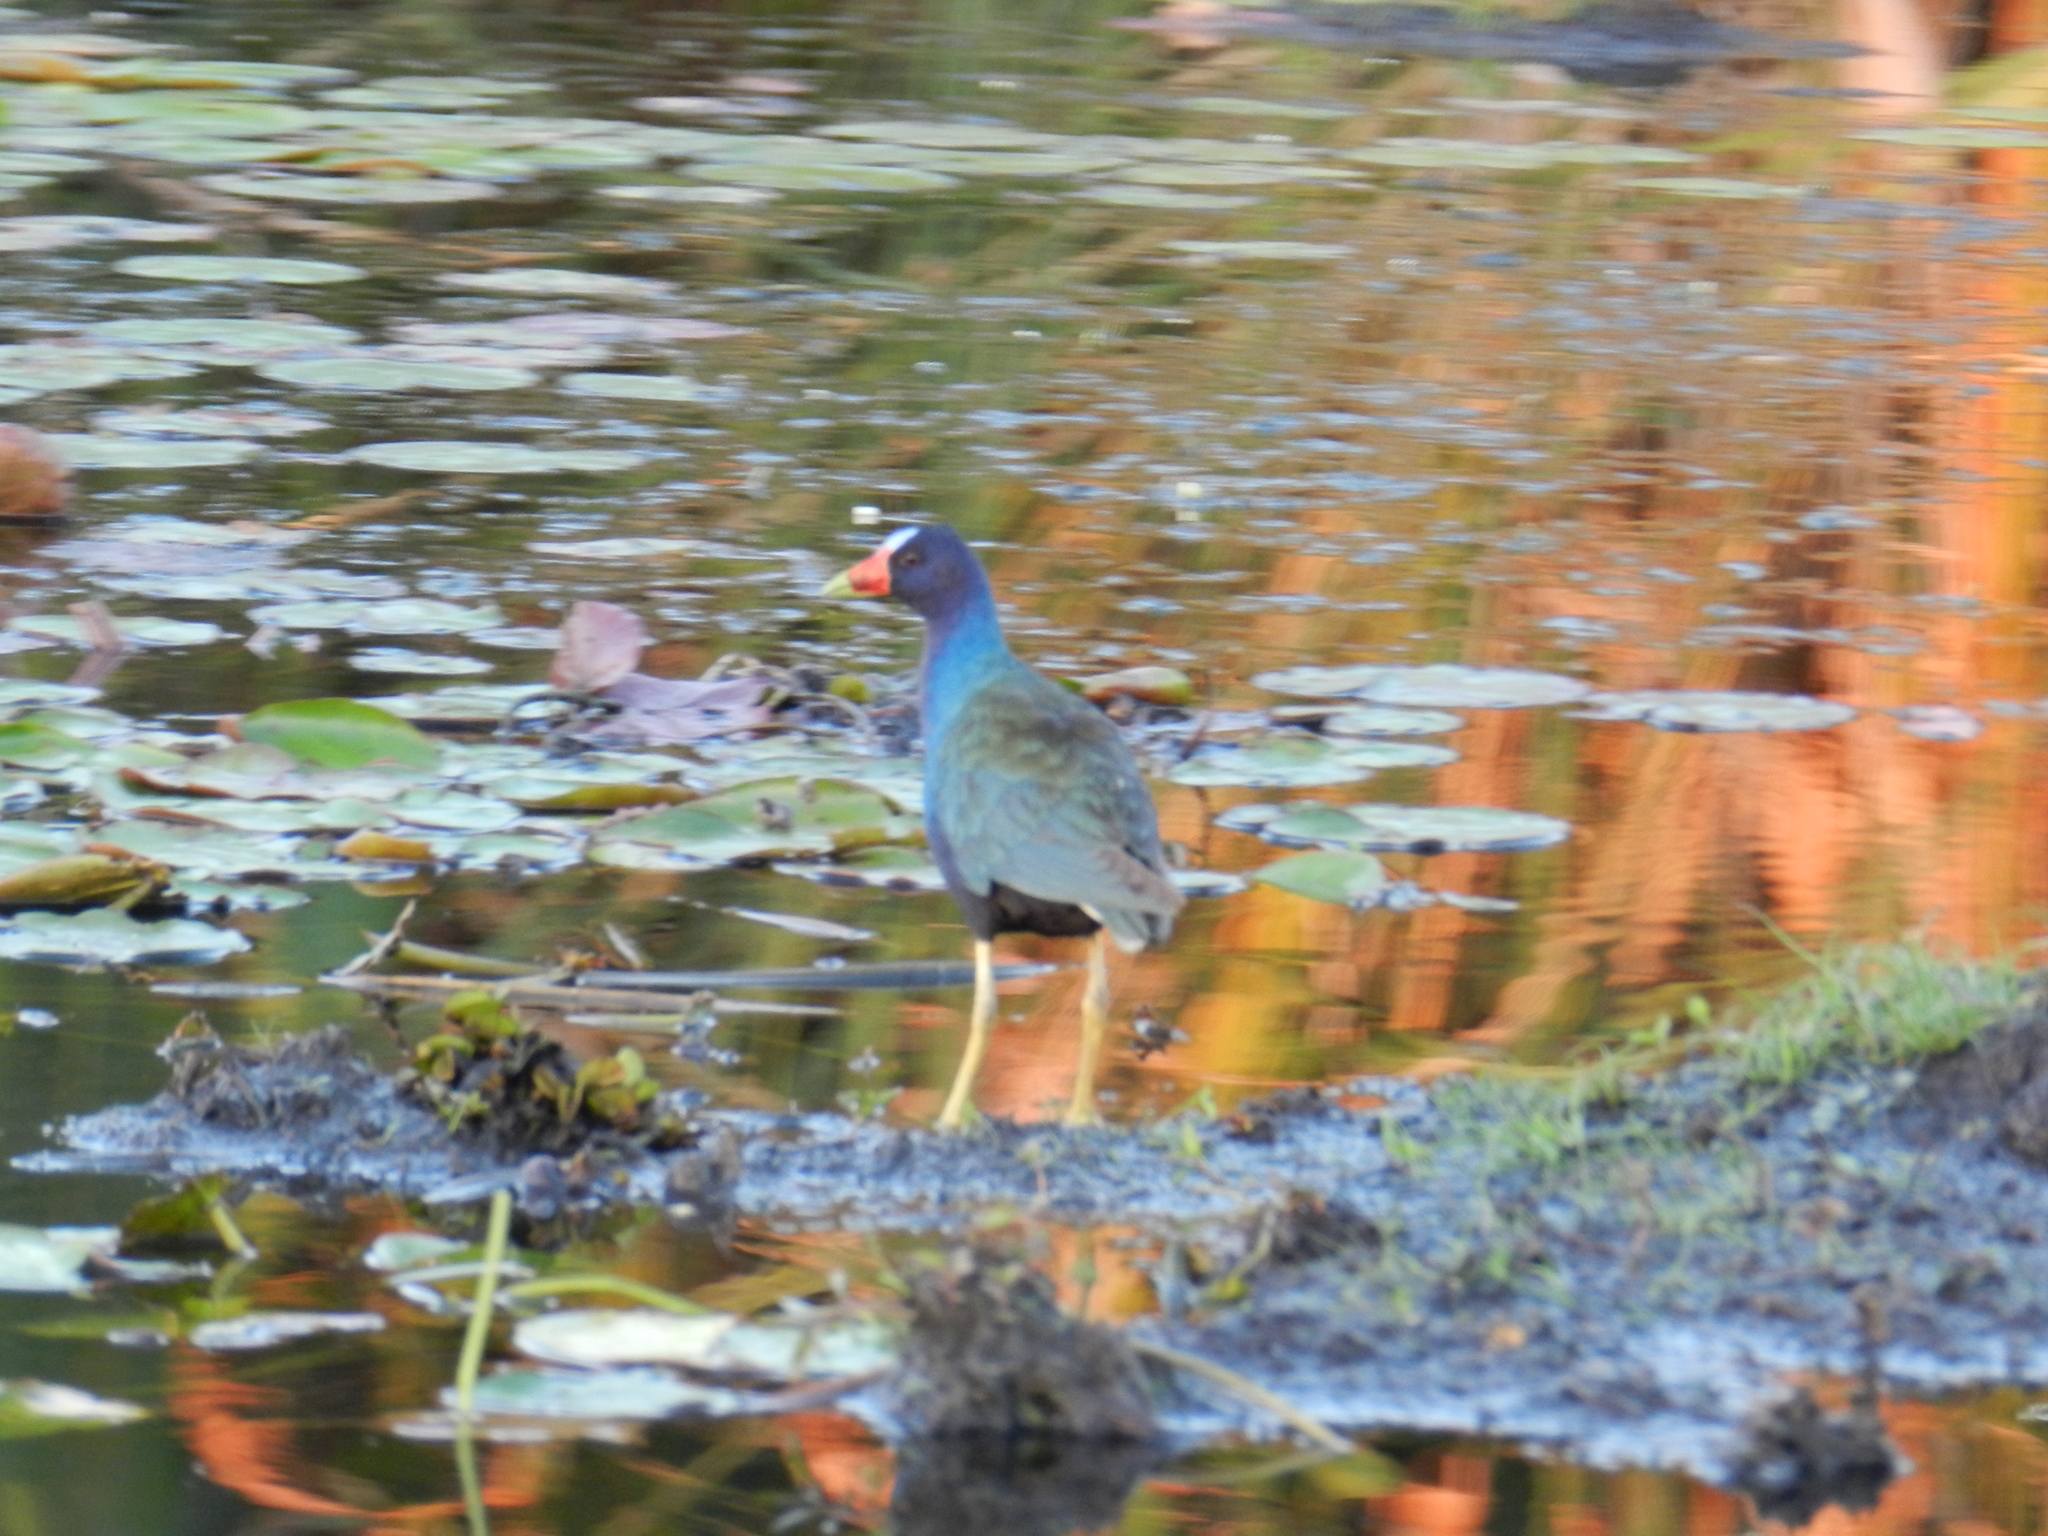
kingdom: Animalia
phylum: Chordata
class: Aves
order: Gruiformes
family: Rallidae
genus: Porphyrio
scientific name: Porphyrio martinica
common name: Purple gallinule
